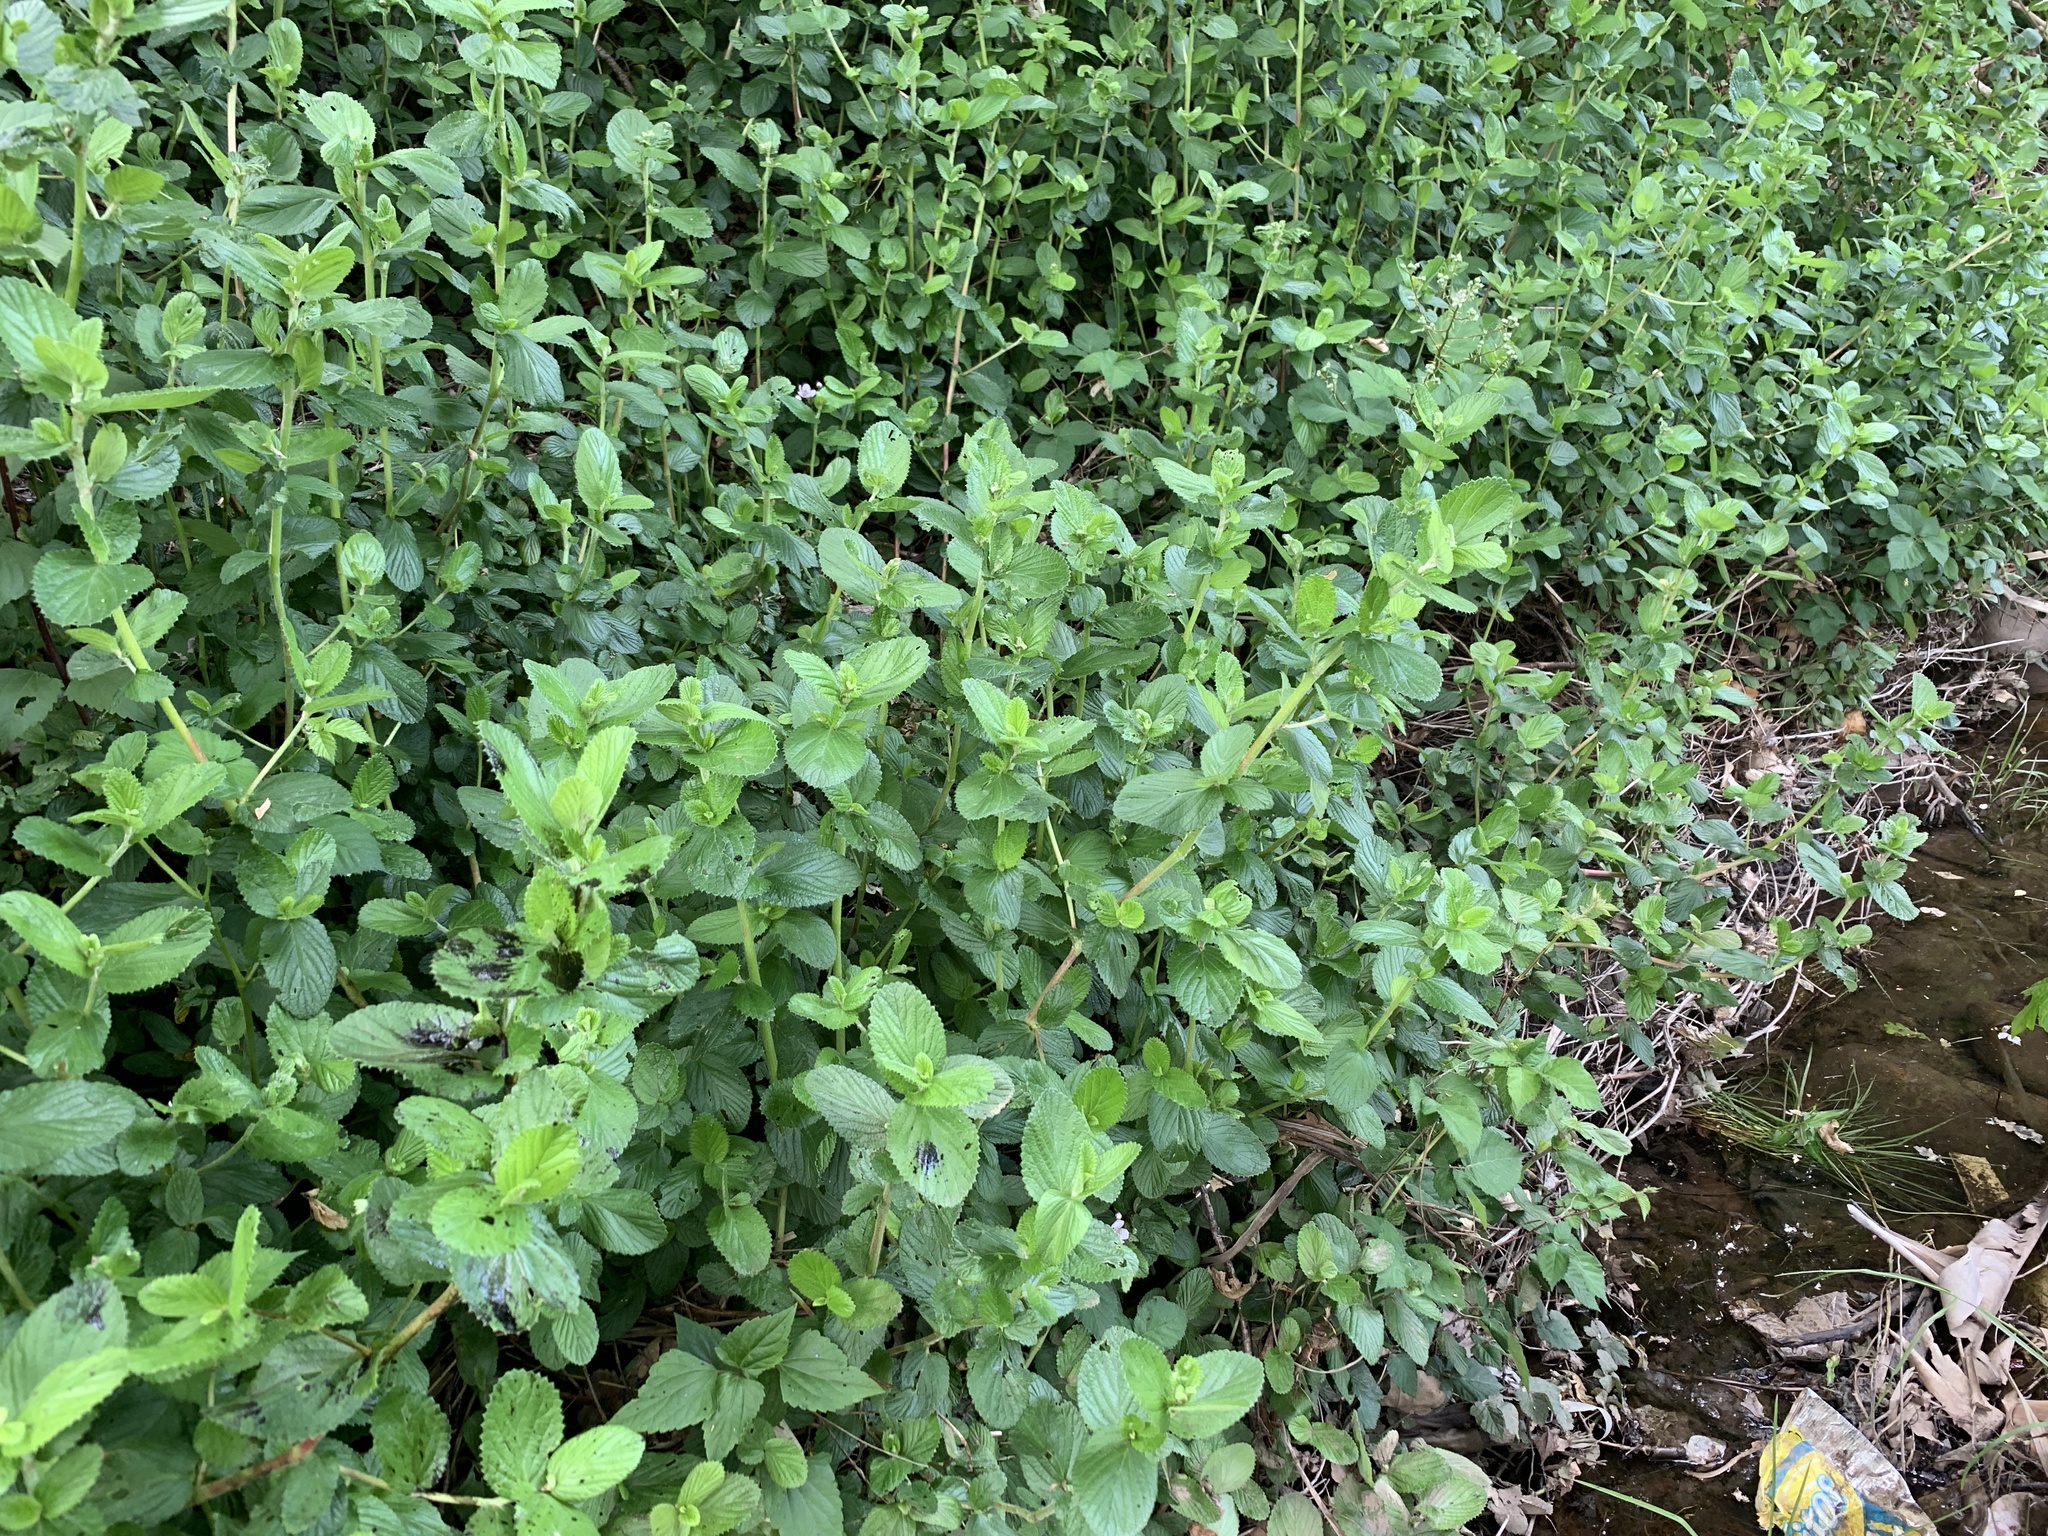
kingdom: Plantae
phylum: Tracheophyta
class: Magnoliopsida
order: Rosales
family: Rosaceae
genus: Cliffortia
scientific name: Cliffortia odorata
